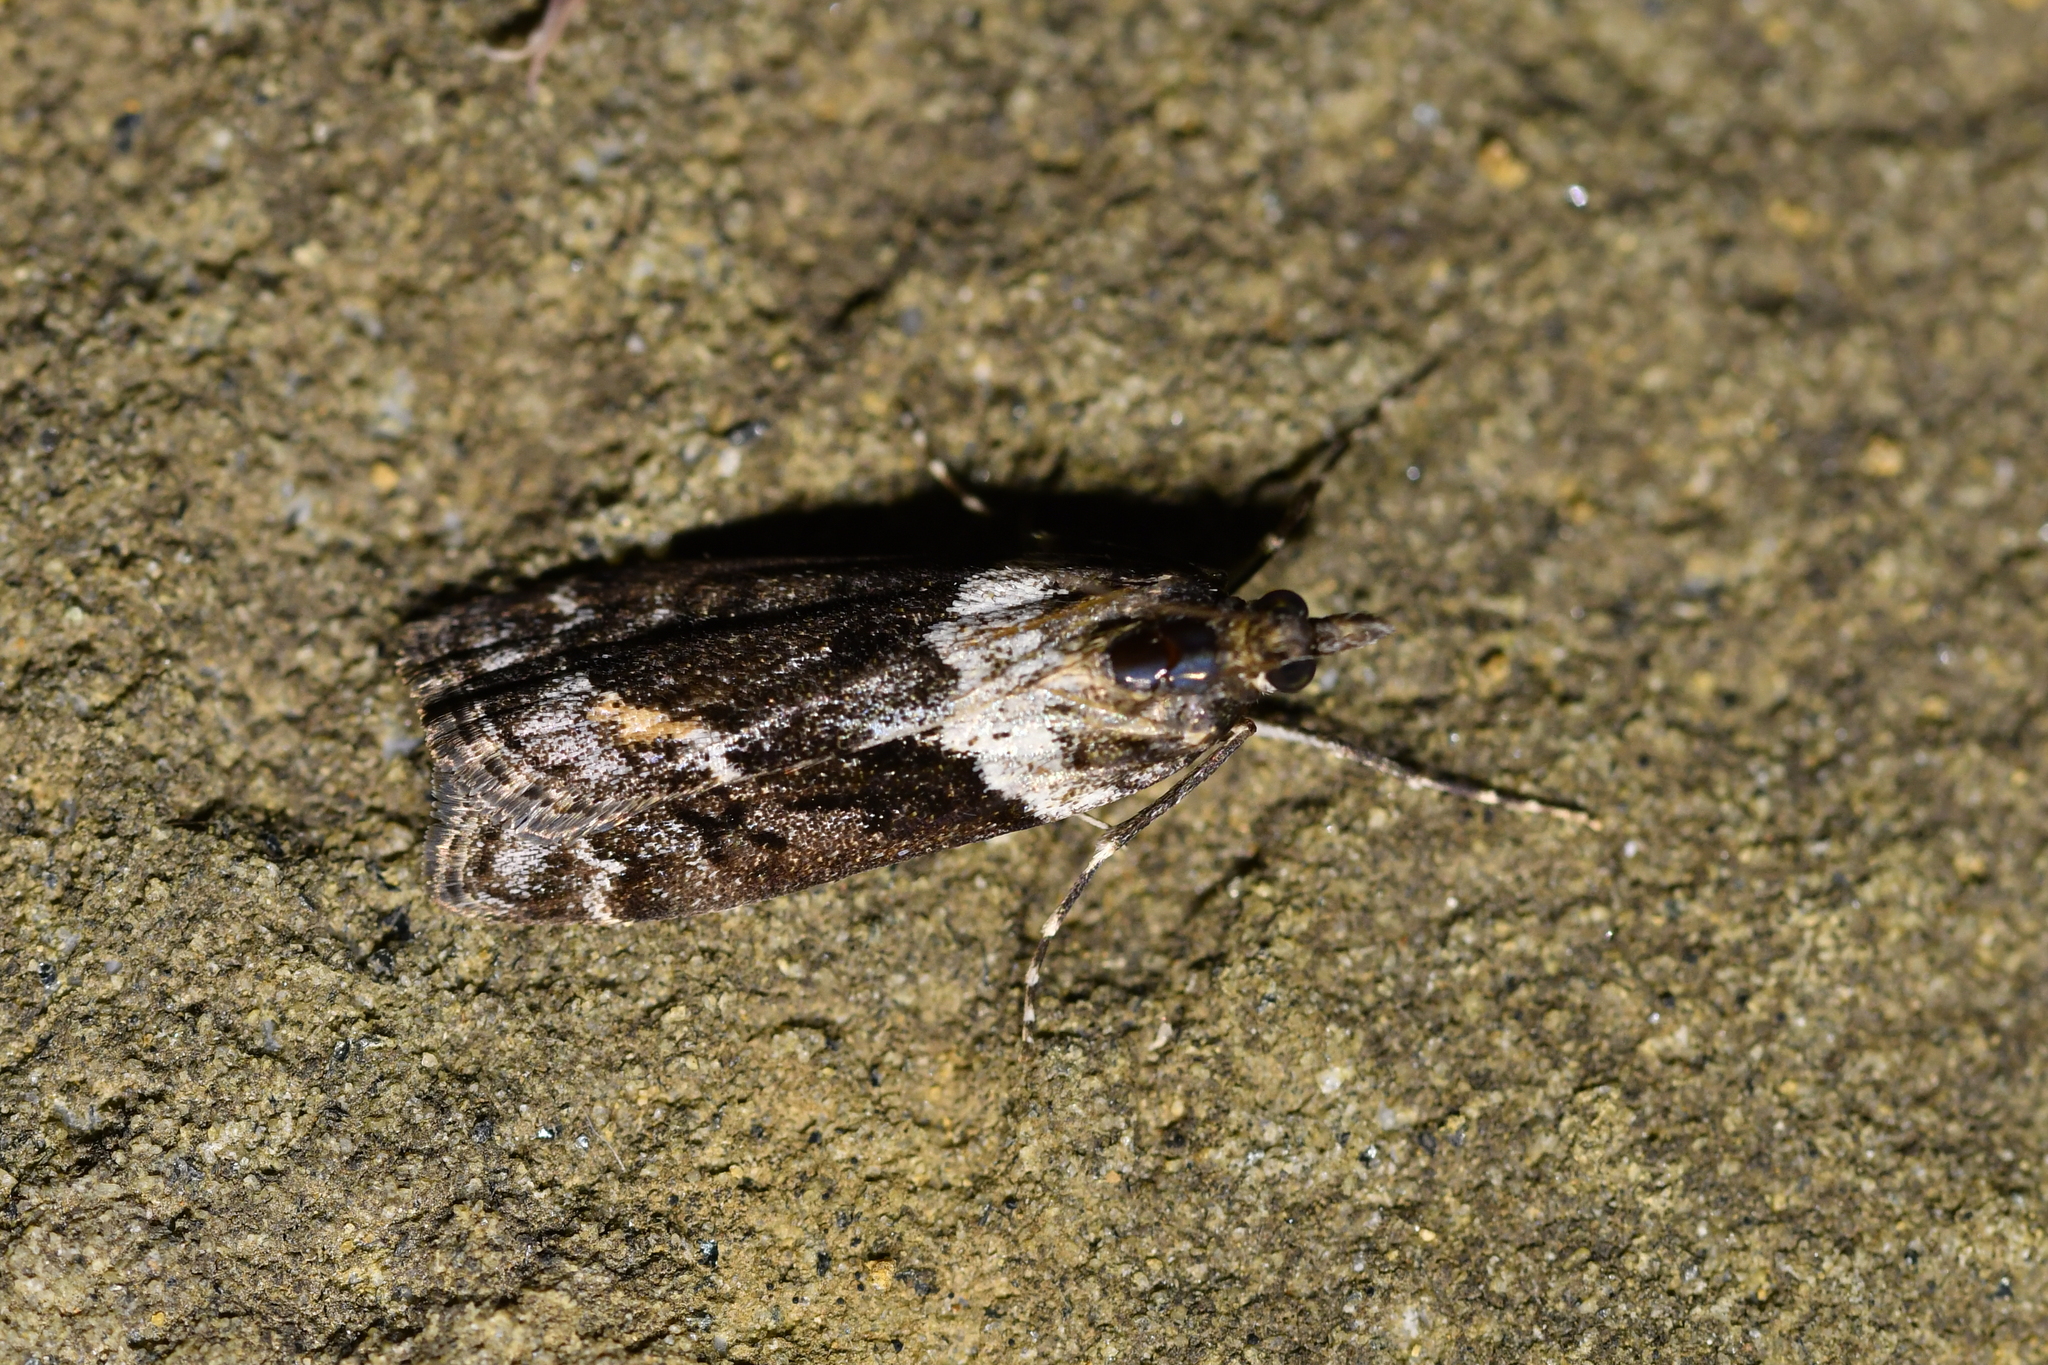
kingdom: Animalia
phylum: Arthropoda
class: Insecta
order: Lepidoptera
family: Crambidae
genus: Eudonia
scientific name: Eudonia submarginalis
